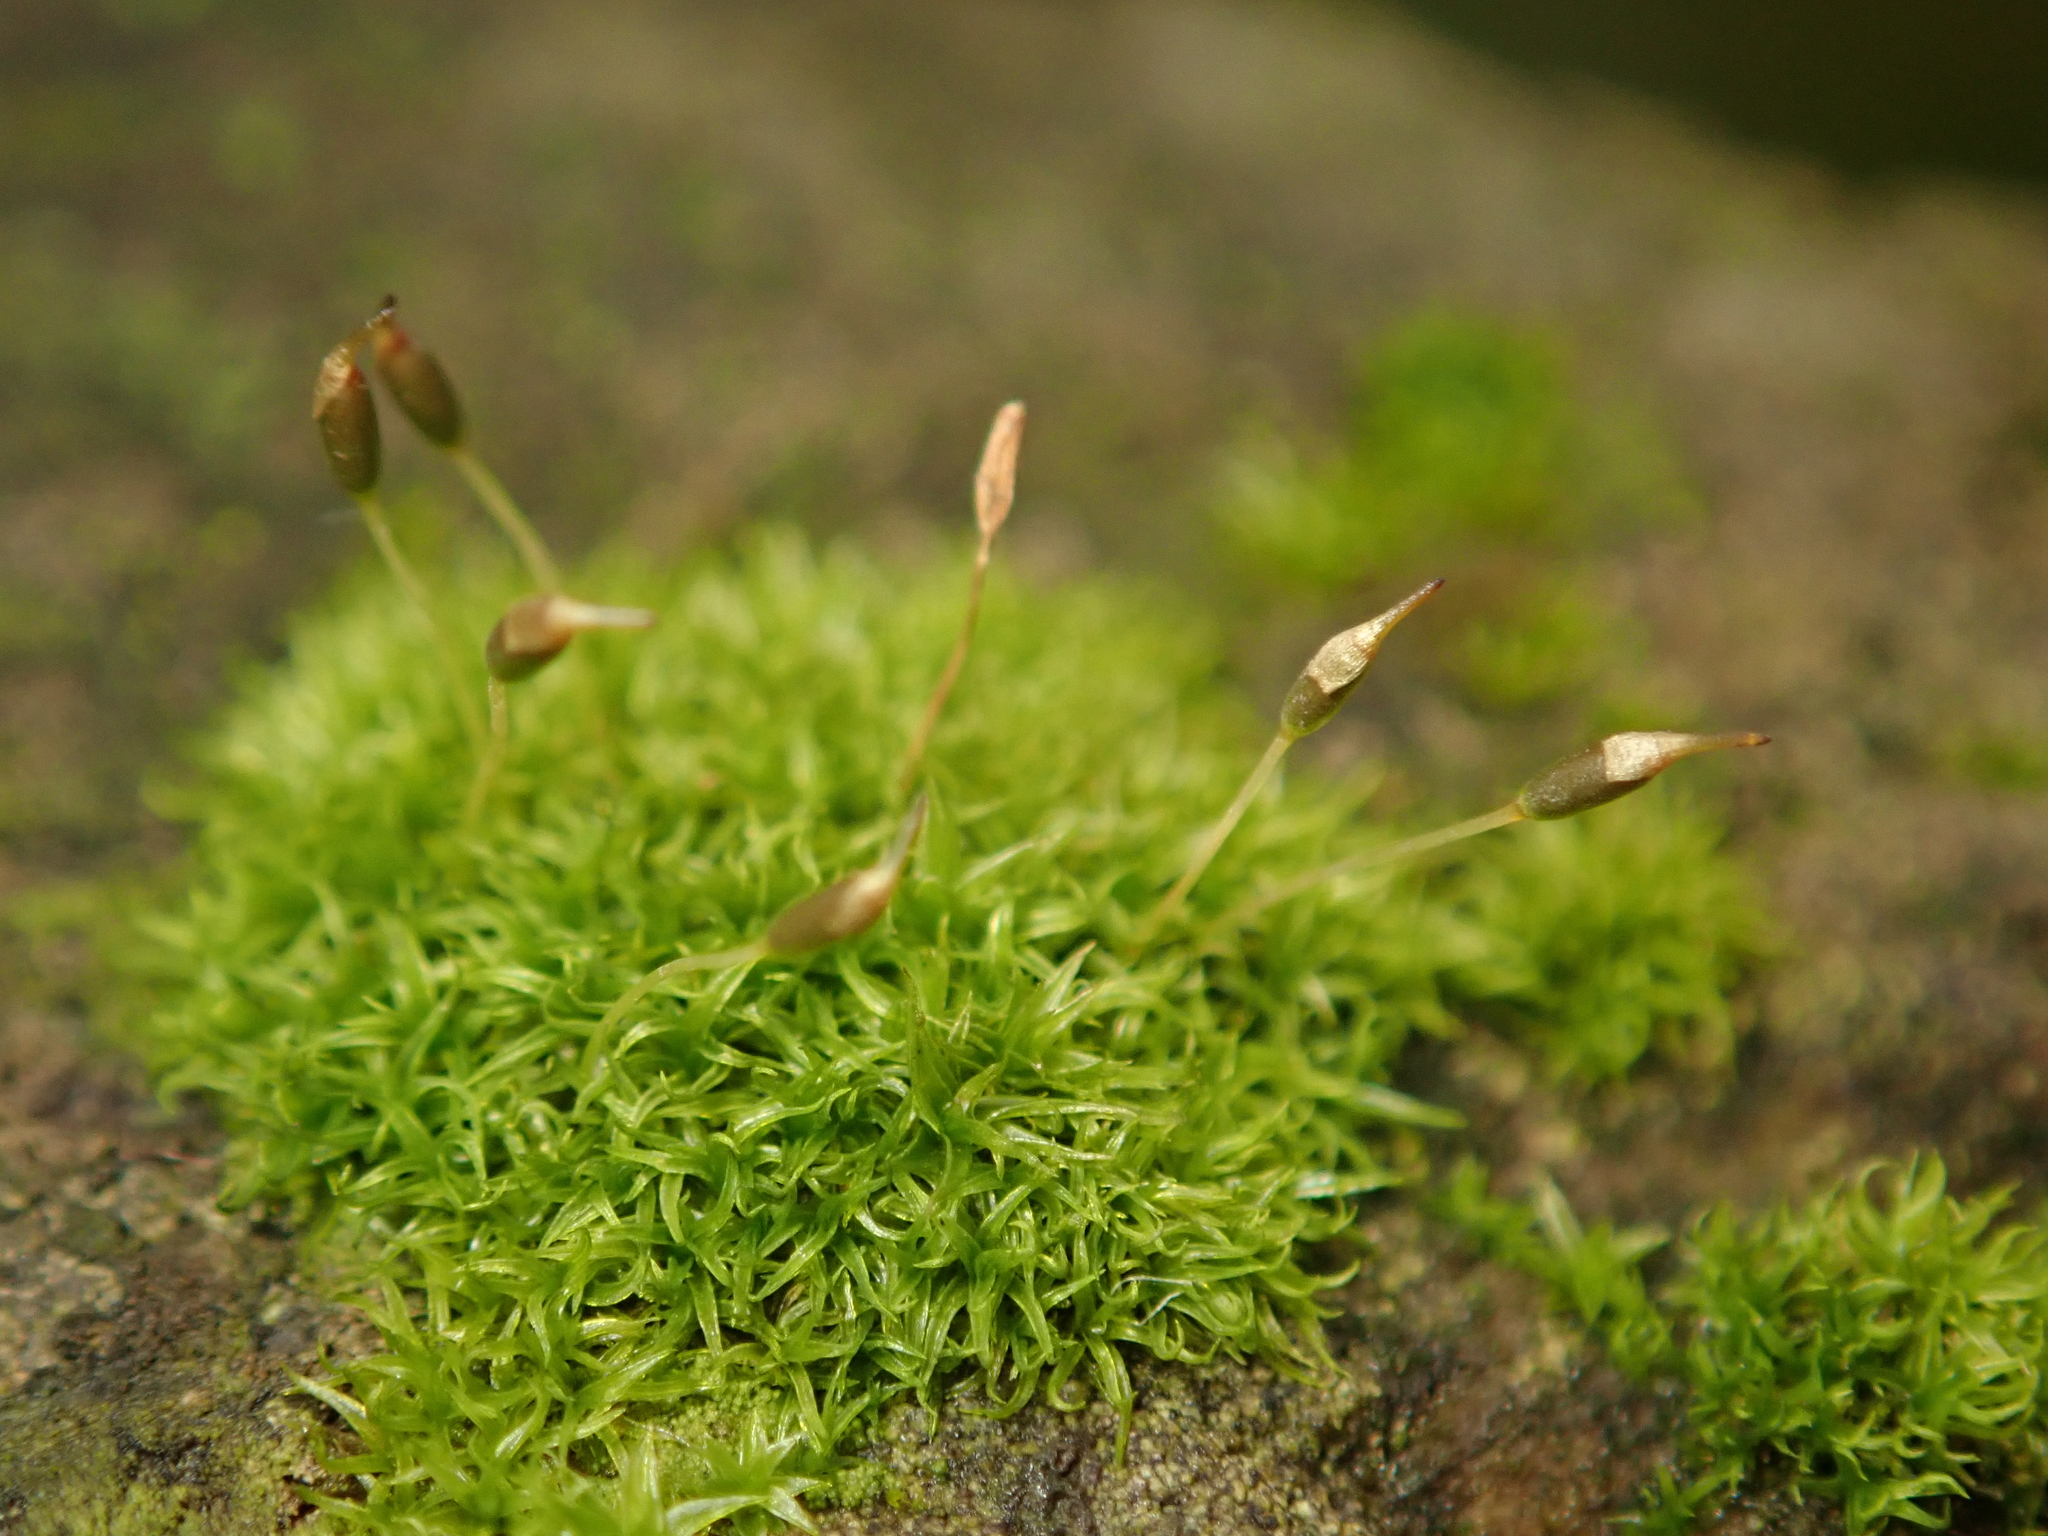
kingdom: Plantae
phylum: Bryophyta
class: Bryopsida
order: Dicranales
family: Rhabdoweisiaceae
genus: Dicranoweisia
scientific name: Dicranoweisia cirrata
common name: Common pincushion
